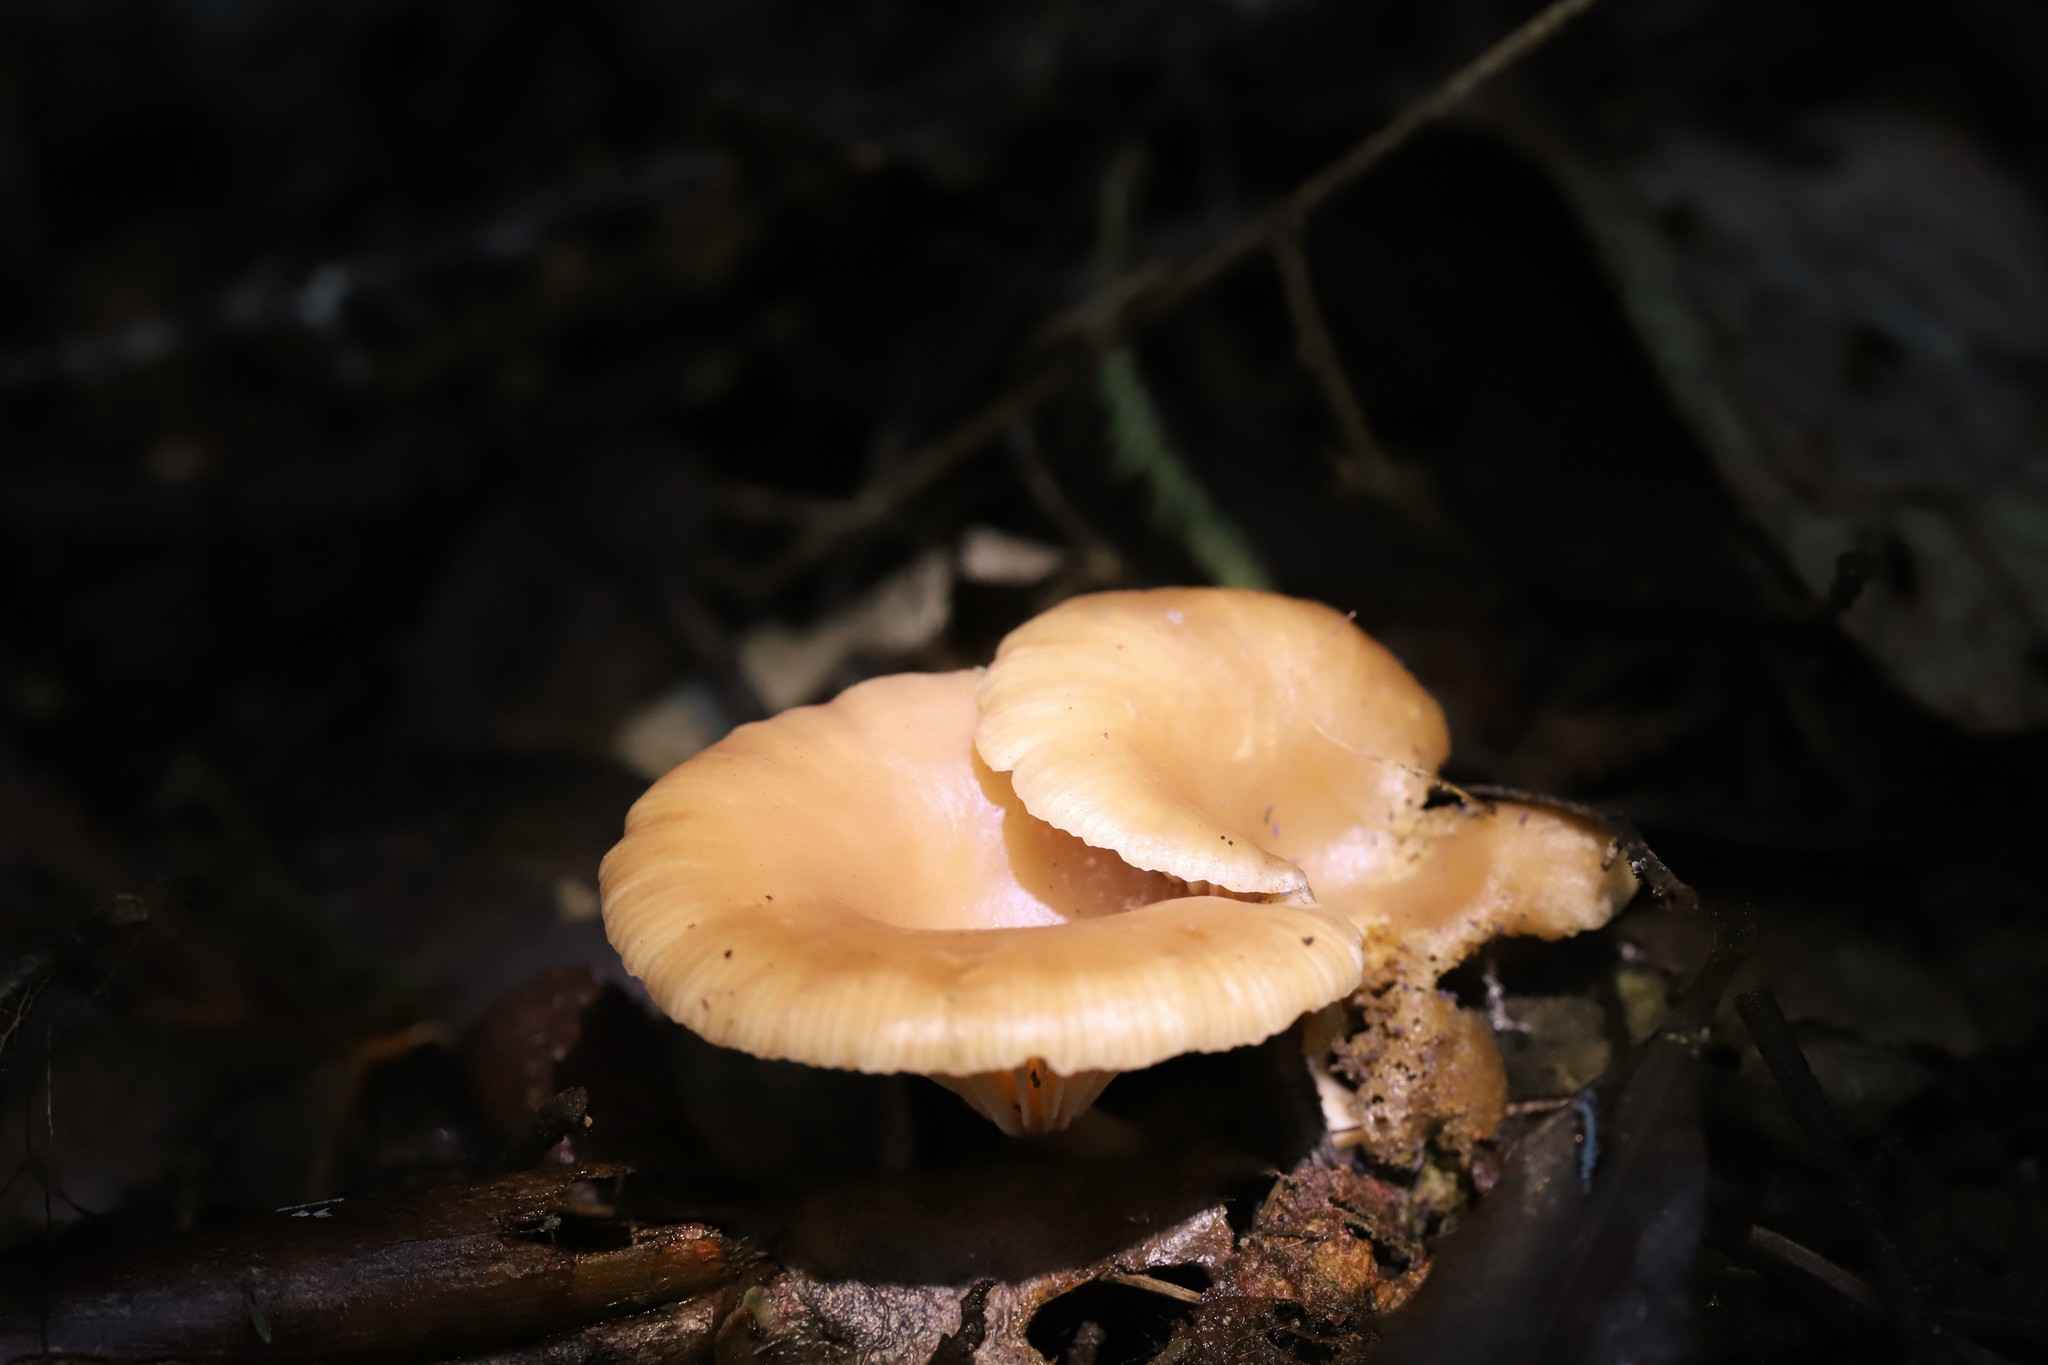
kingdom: Fungi
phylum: Basidiomycota
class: Agaricomycetes
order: Agaricales
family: Tricholomataceae
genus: Singerocybe
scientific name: Singerocybe clitocyboides
